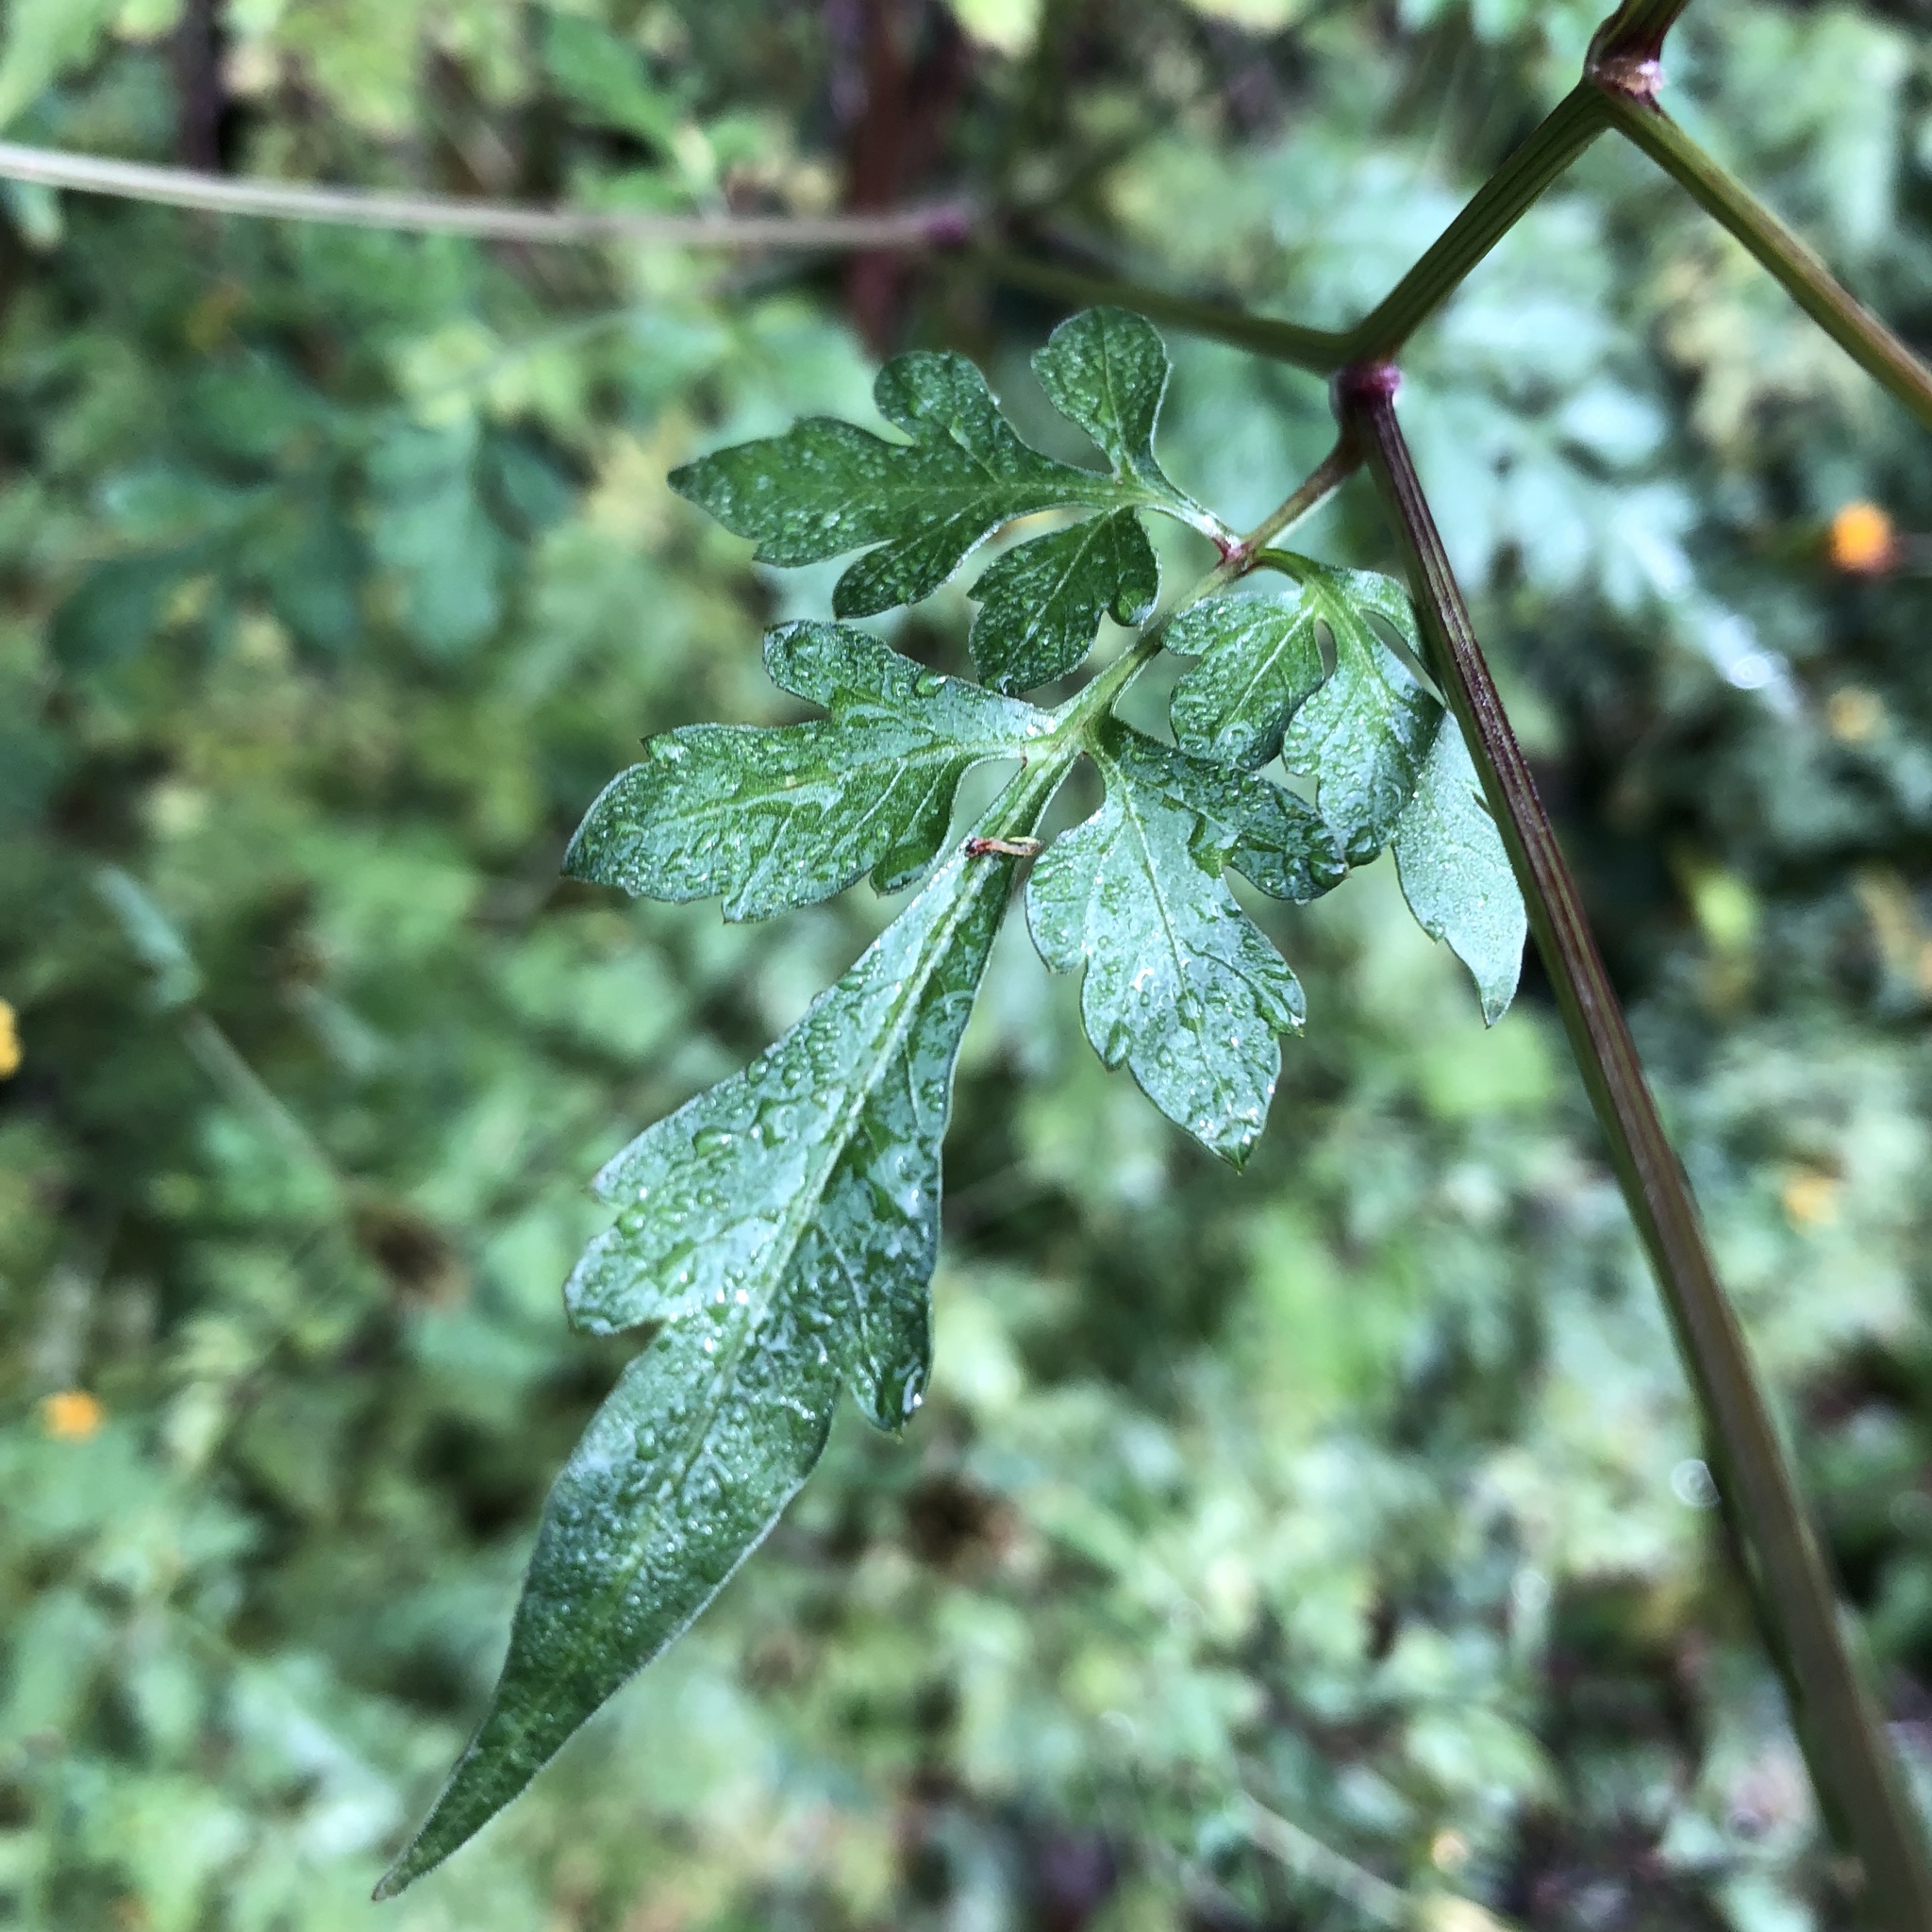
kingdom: Plantae
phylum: Tracheophyta
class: Magnoliopsida
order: Asterales
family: Asteraceae
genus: Bidens
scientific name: Bidens bipinnata
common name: Spanish-needles
